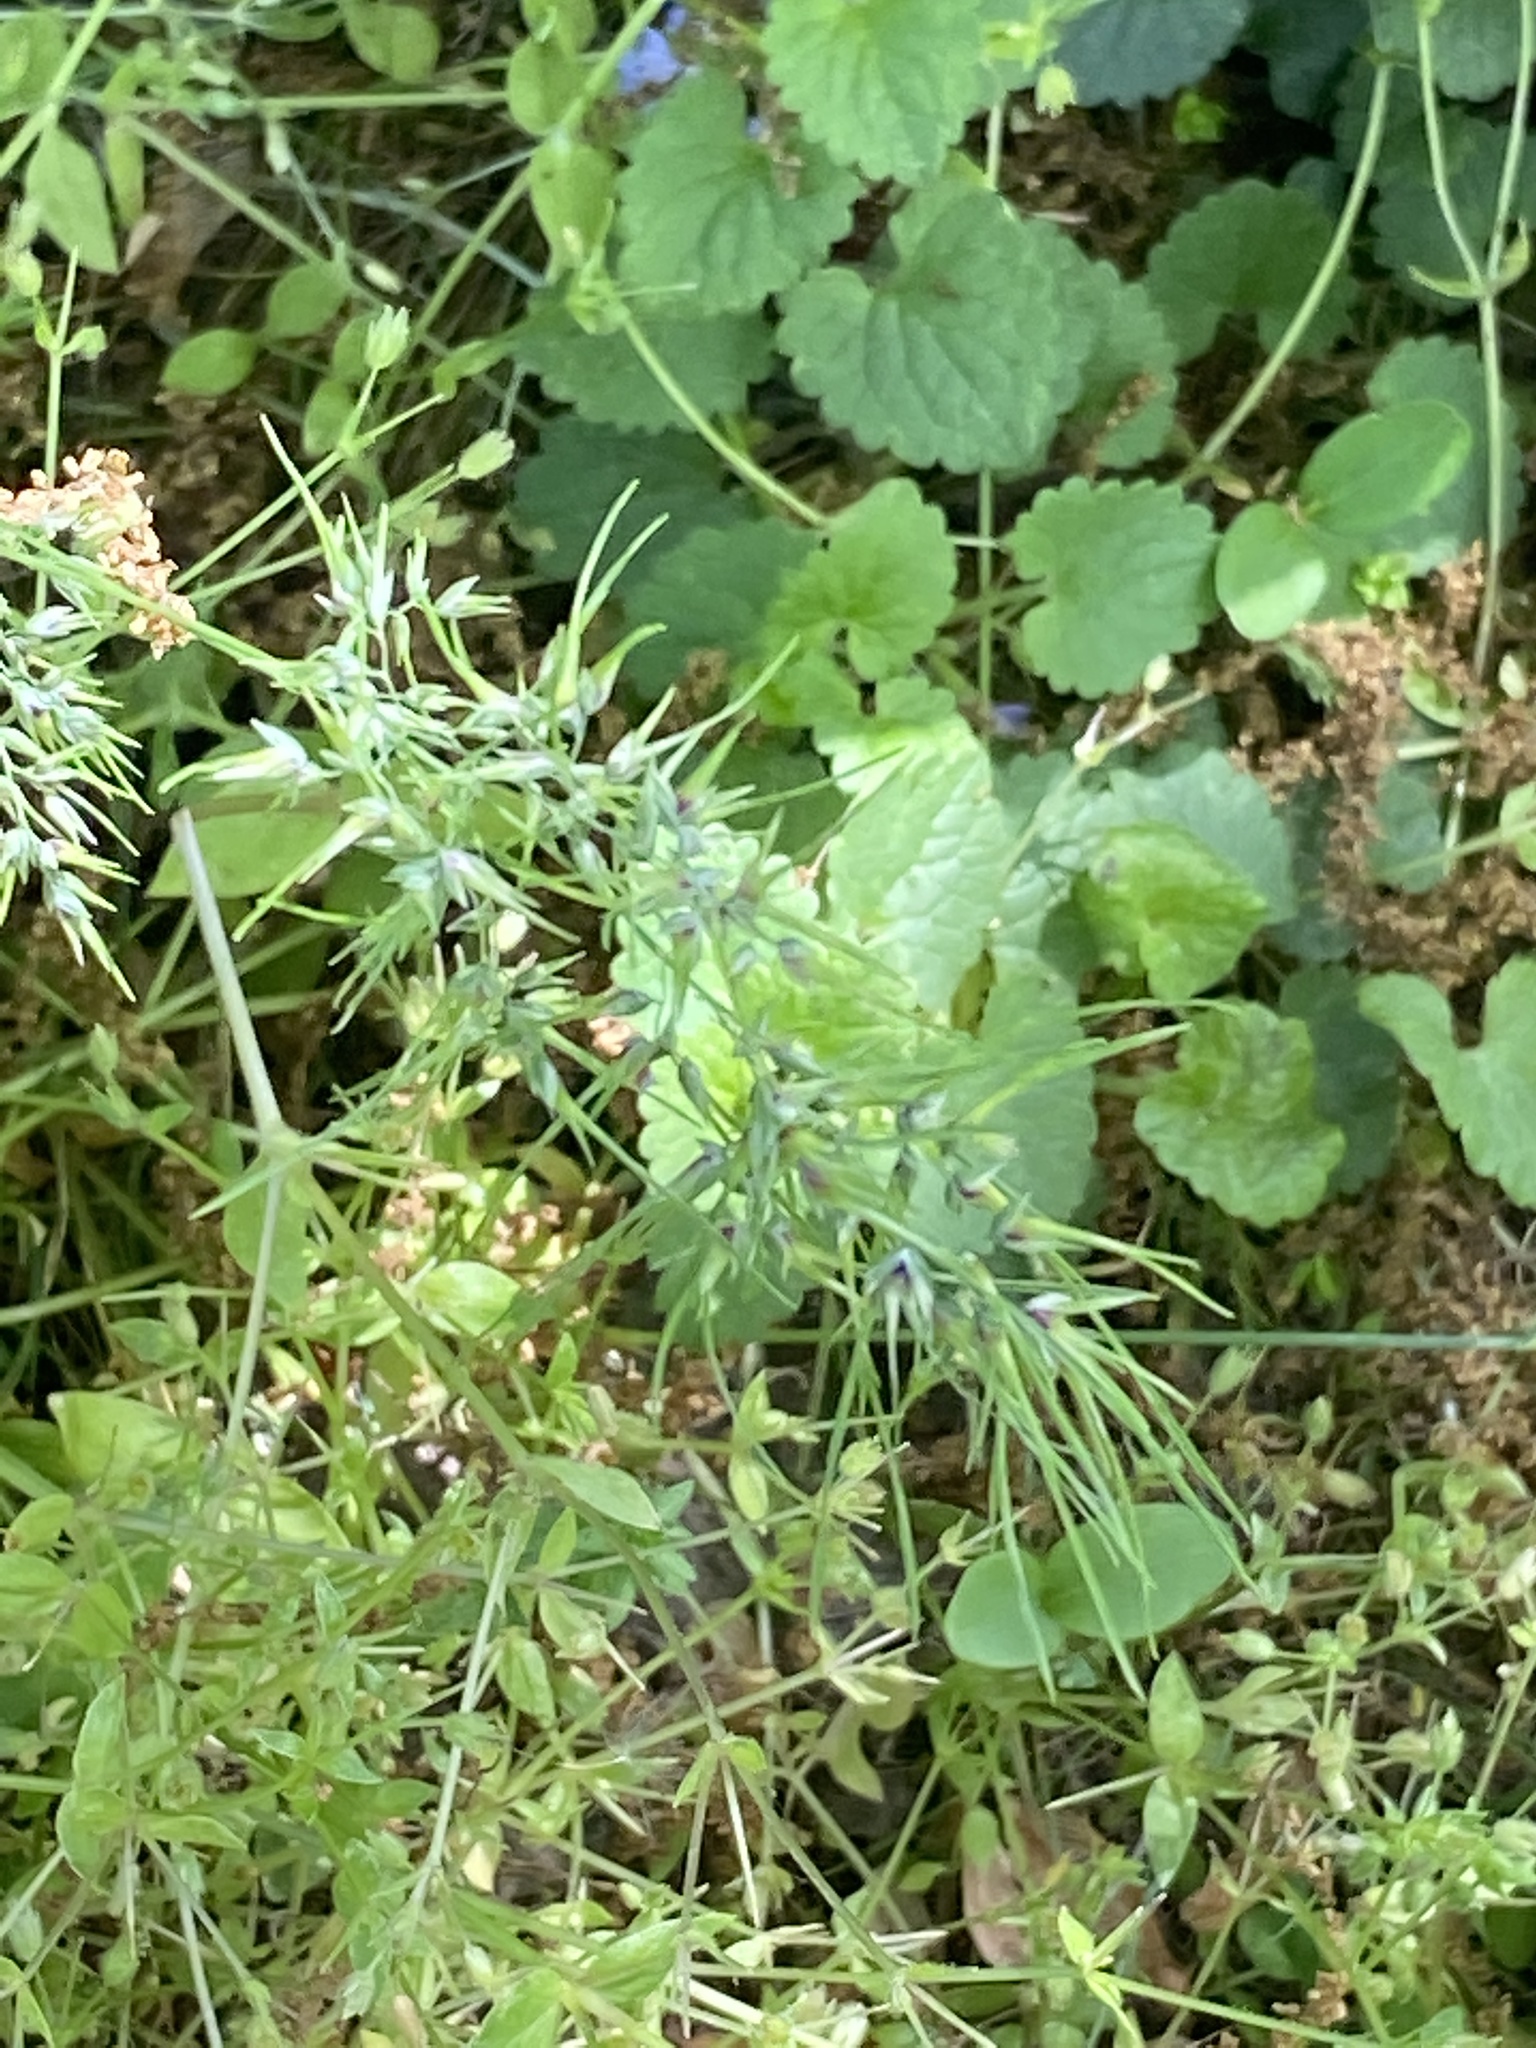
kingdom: Plantae
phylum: Tracheophyta
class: Liliopsida
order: Poales
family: Poaceae
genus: Poa
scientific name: Poa bulbosa
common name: Bulbous bluegrass
